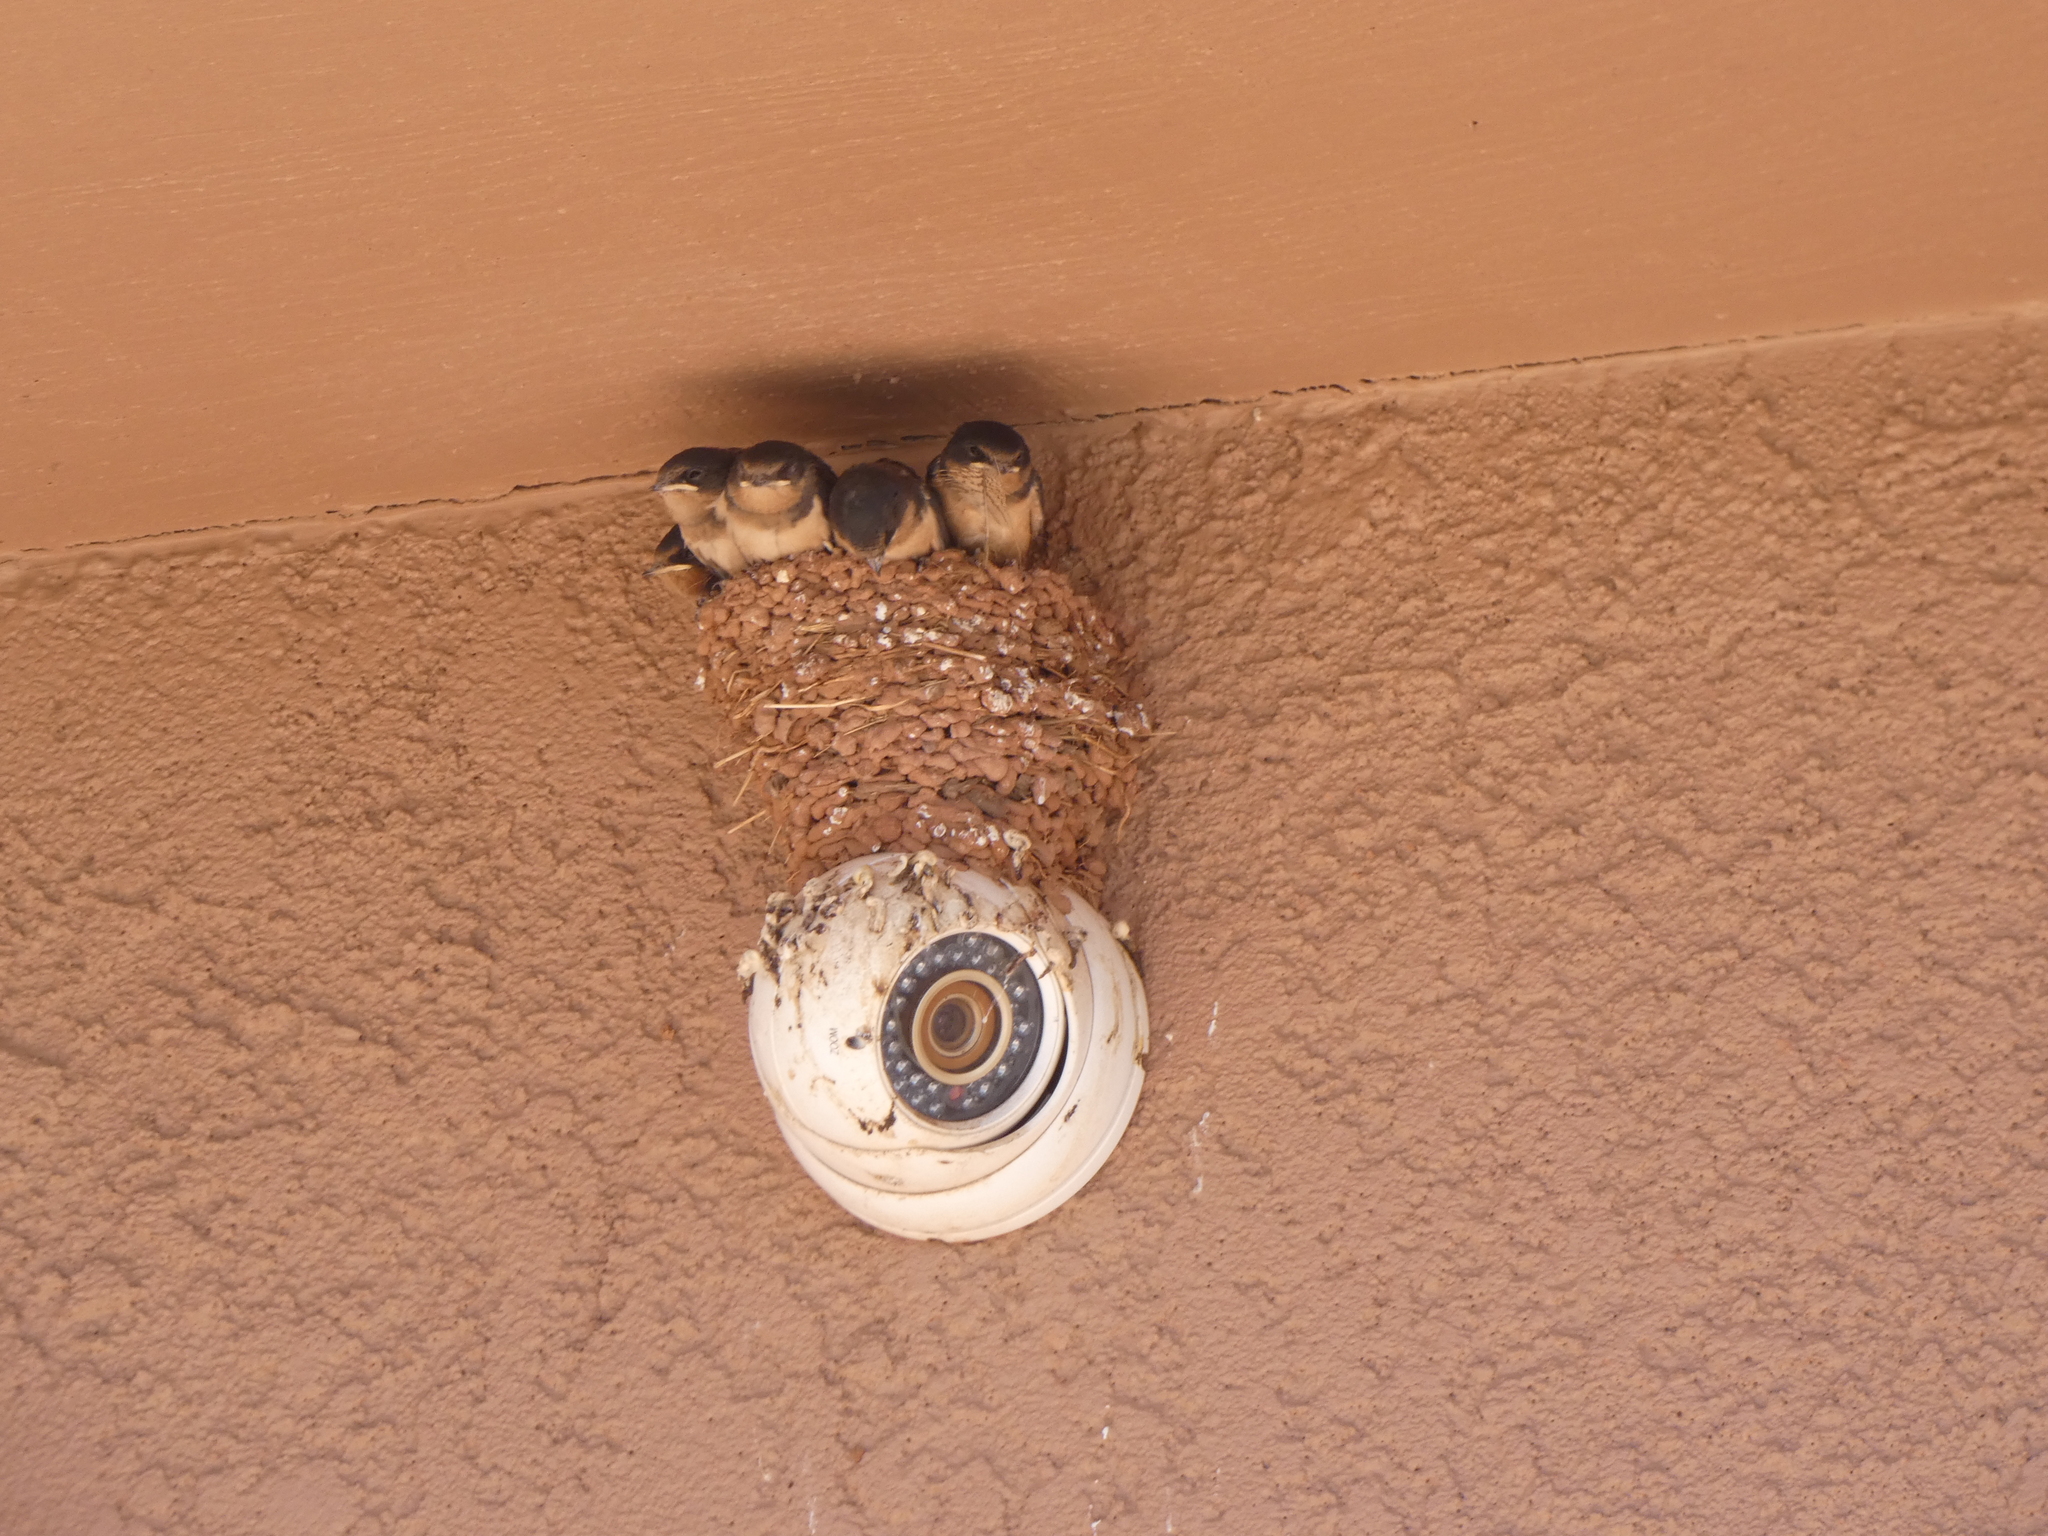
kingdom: Animalia
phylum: Chordata
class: Aves
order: Passeriformes
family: Hirundinidae
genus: Hirundo
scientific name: Hirundo rustica
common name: Barn swallow
